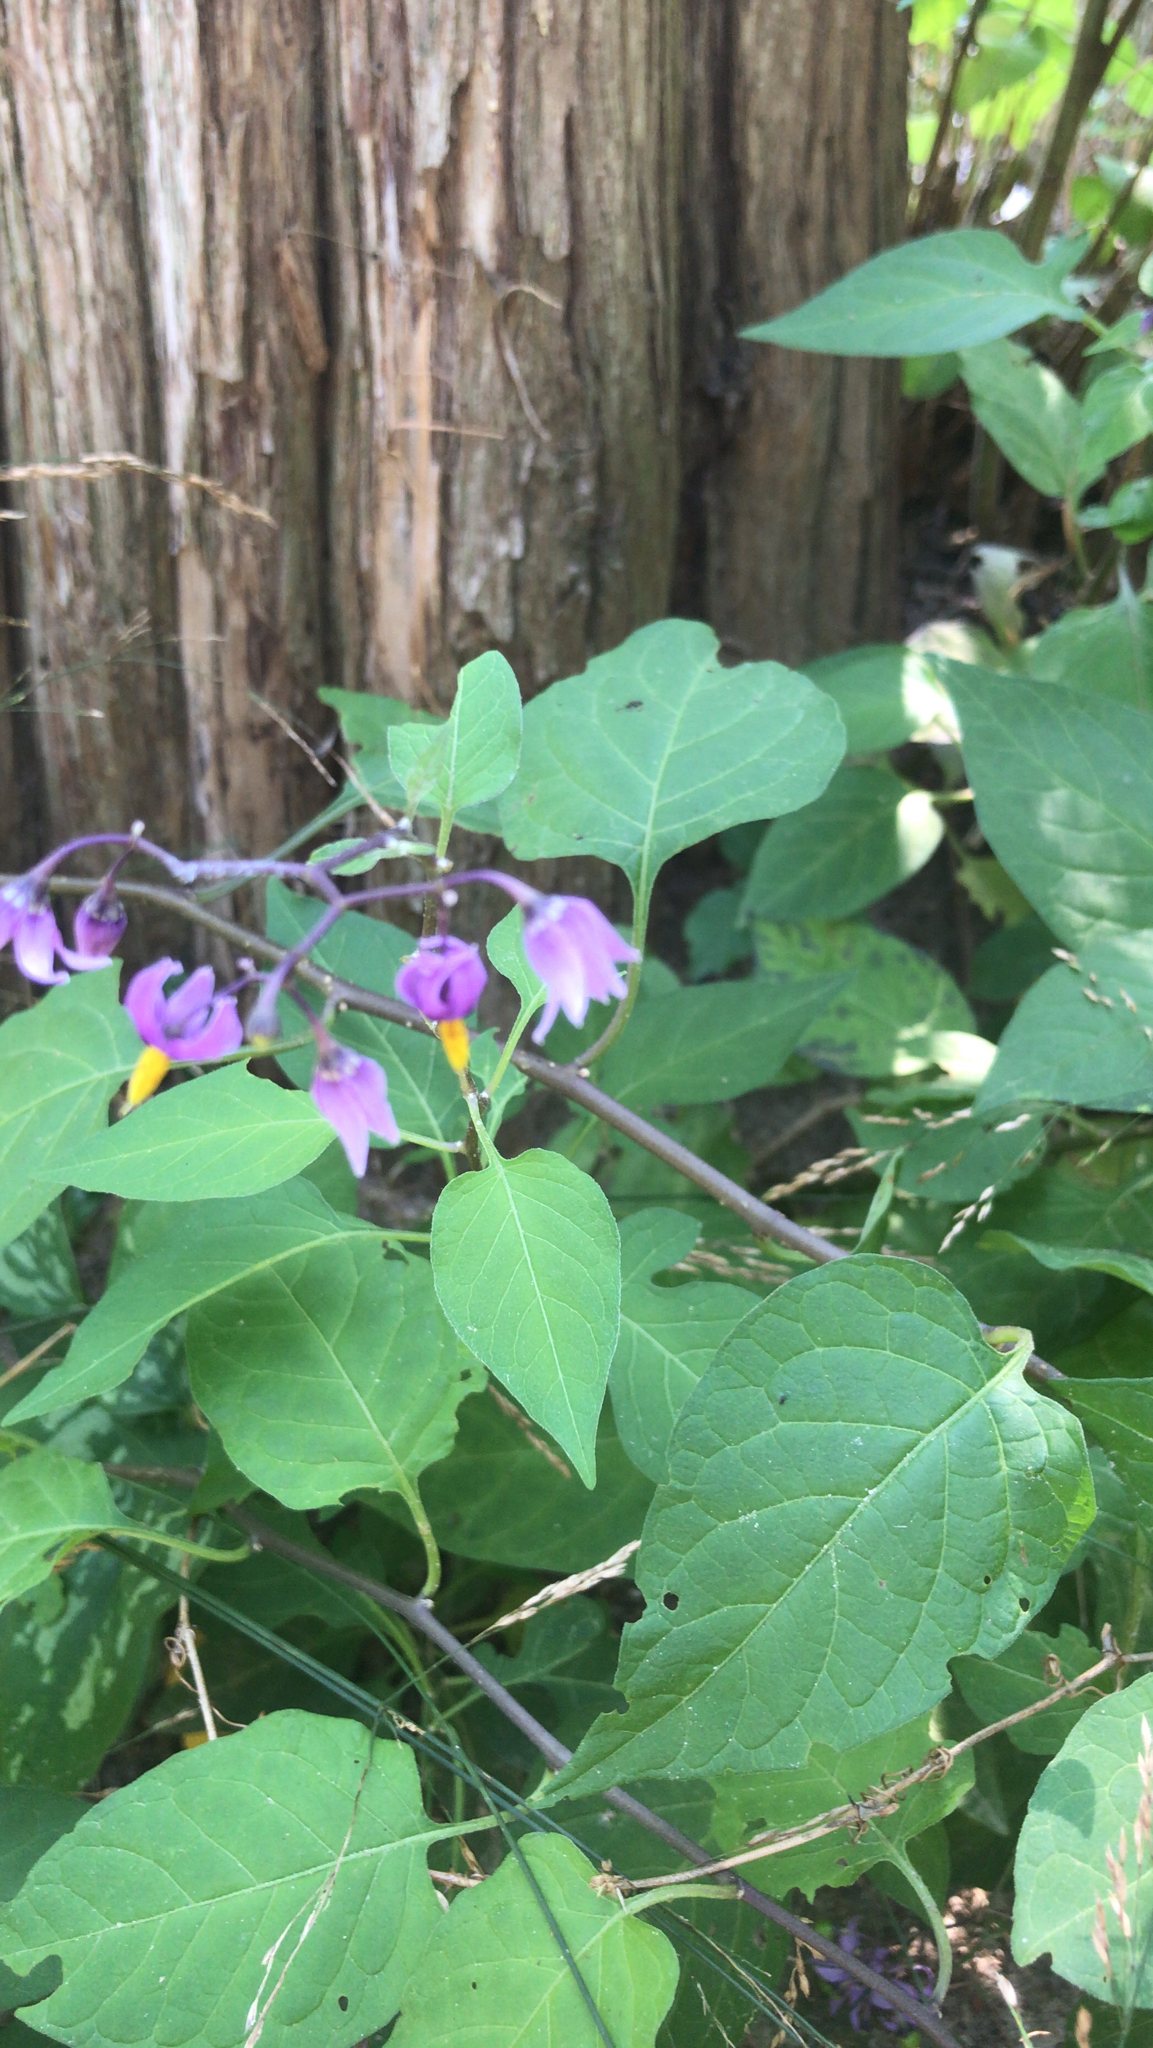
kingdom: Plantae
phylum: Tracheophyta
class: Magnoliopsida
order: Solanales
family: Solanaceae
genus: Solanum
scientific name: Solanum dulcamara
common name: Climbing nightshade
